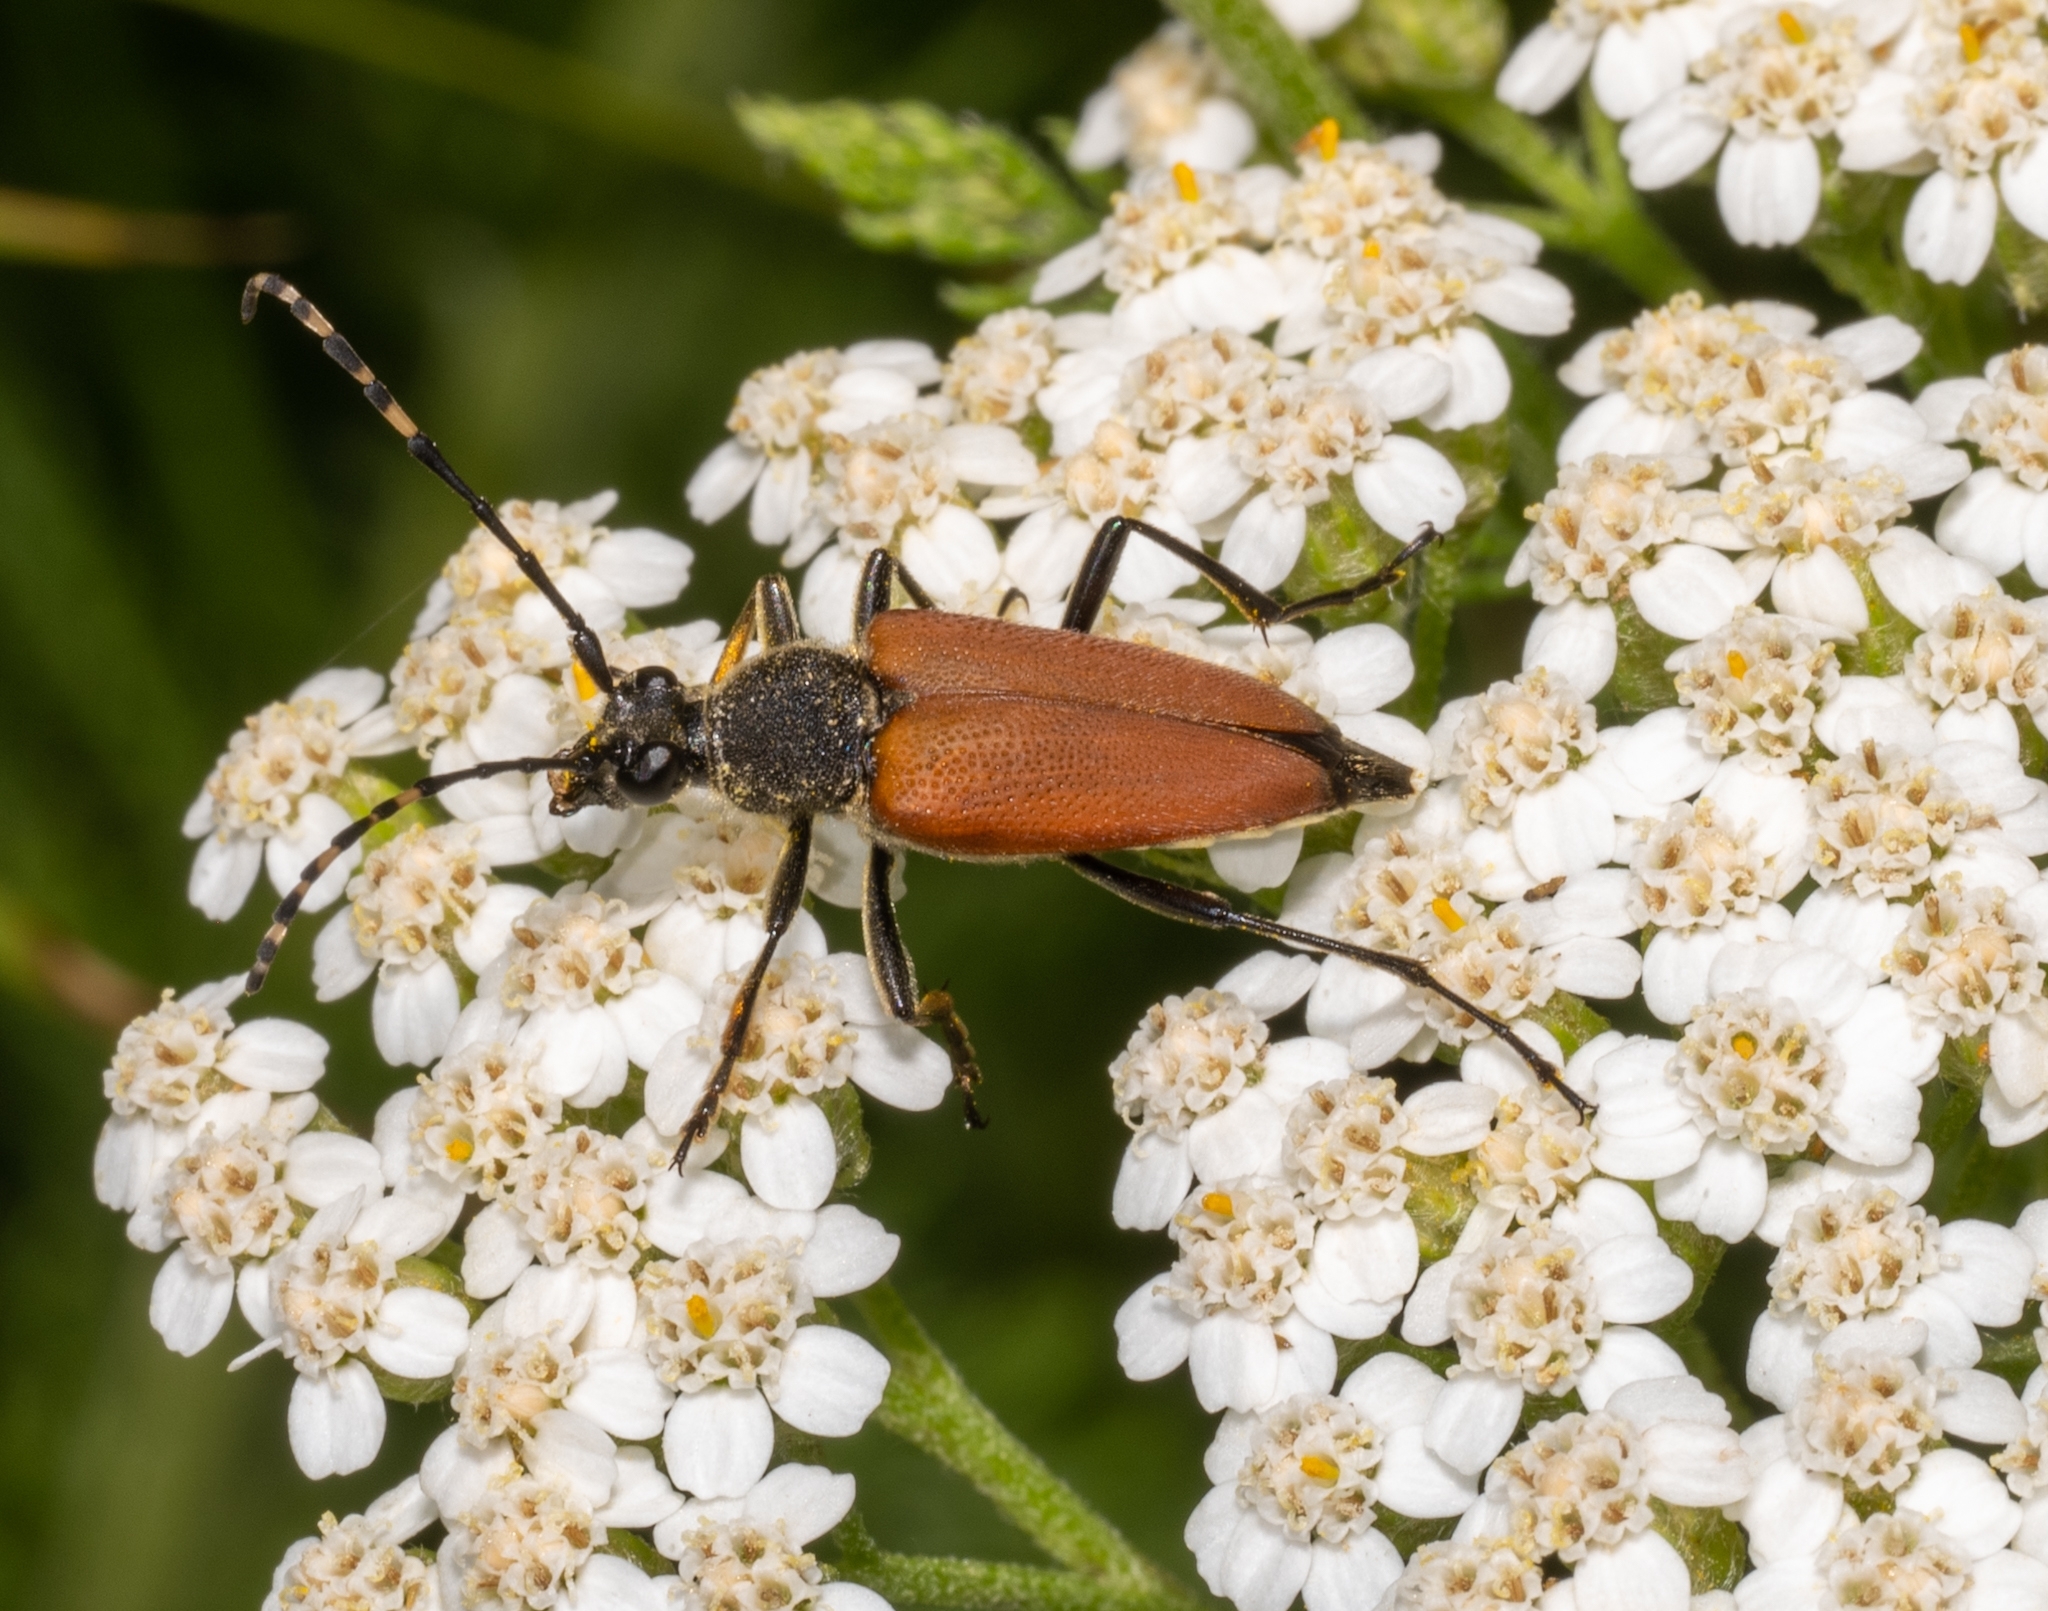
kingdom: Animalia
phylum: Arthropoda
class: Insecta
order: Coleoptera
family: Cerambycidae
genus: Brachyleptura
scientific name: Brachyleptura rubrica
